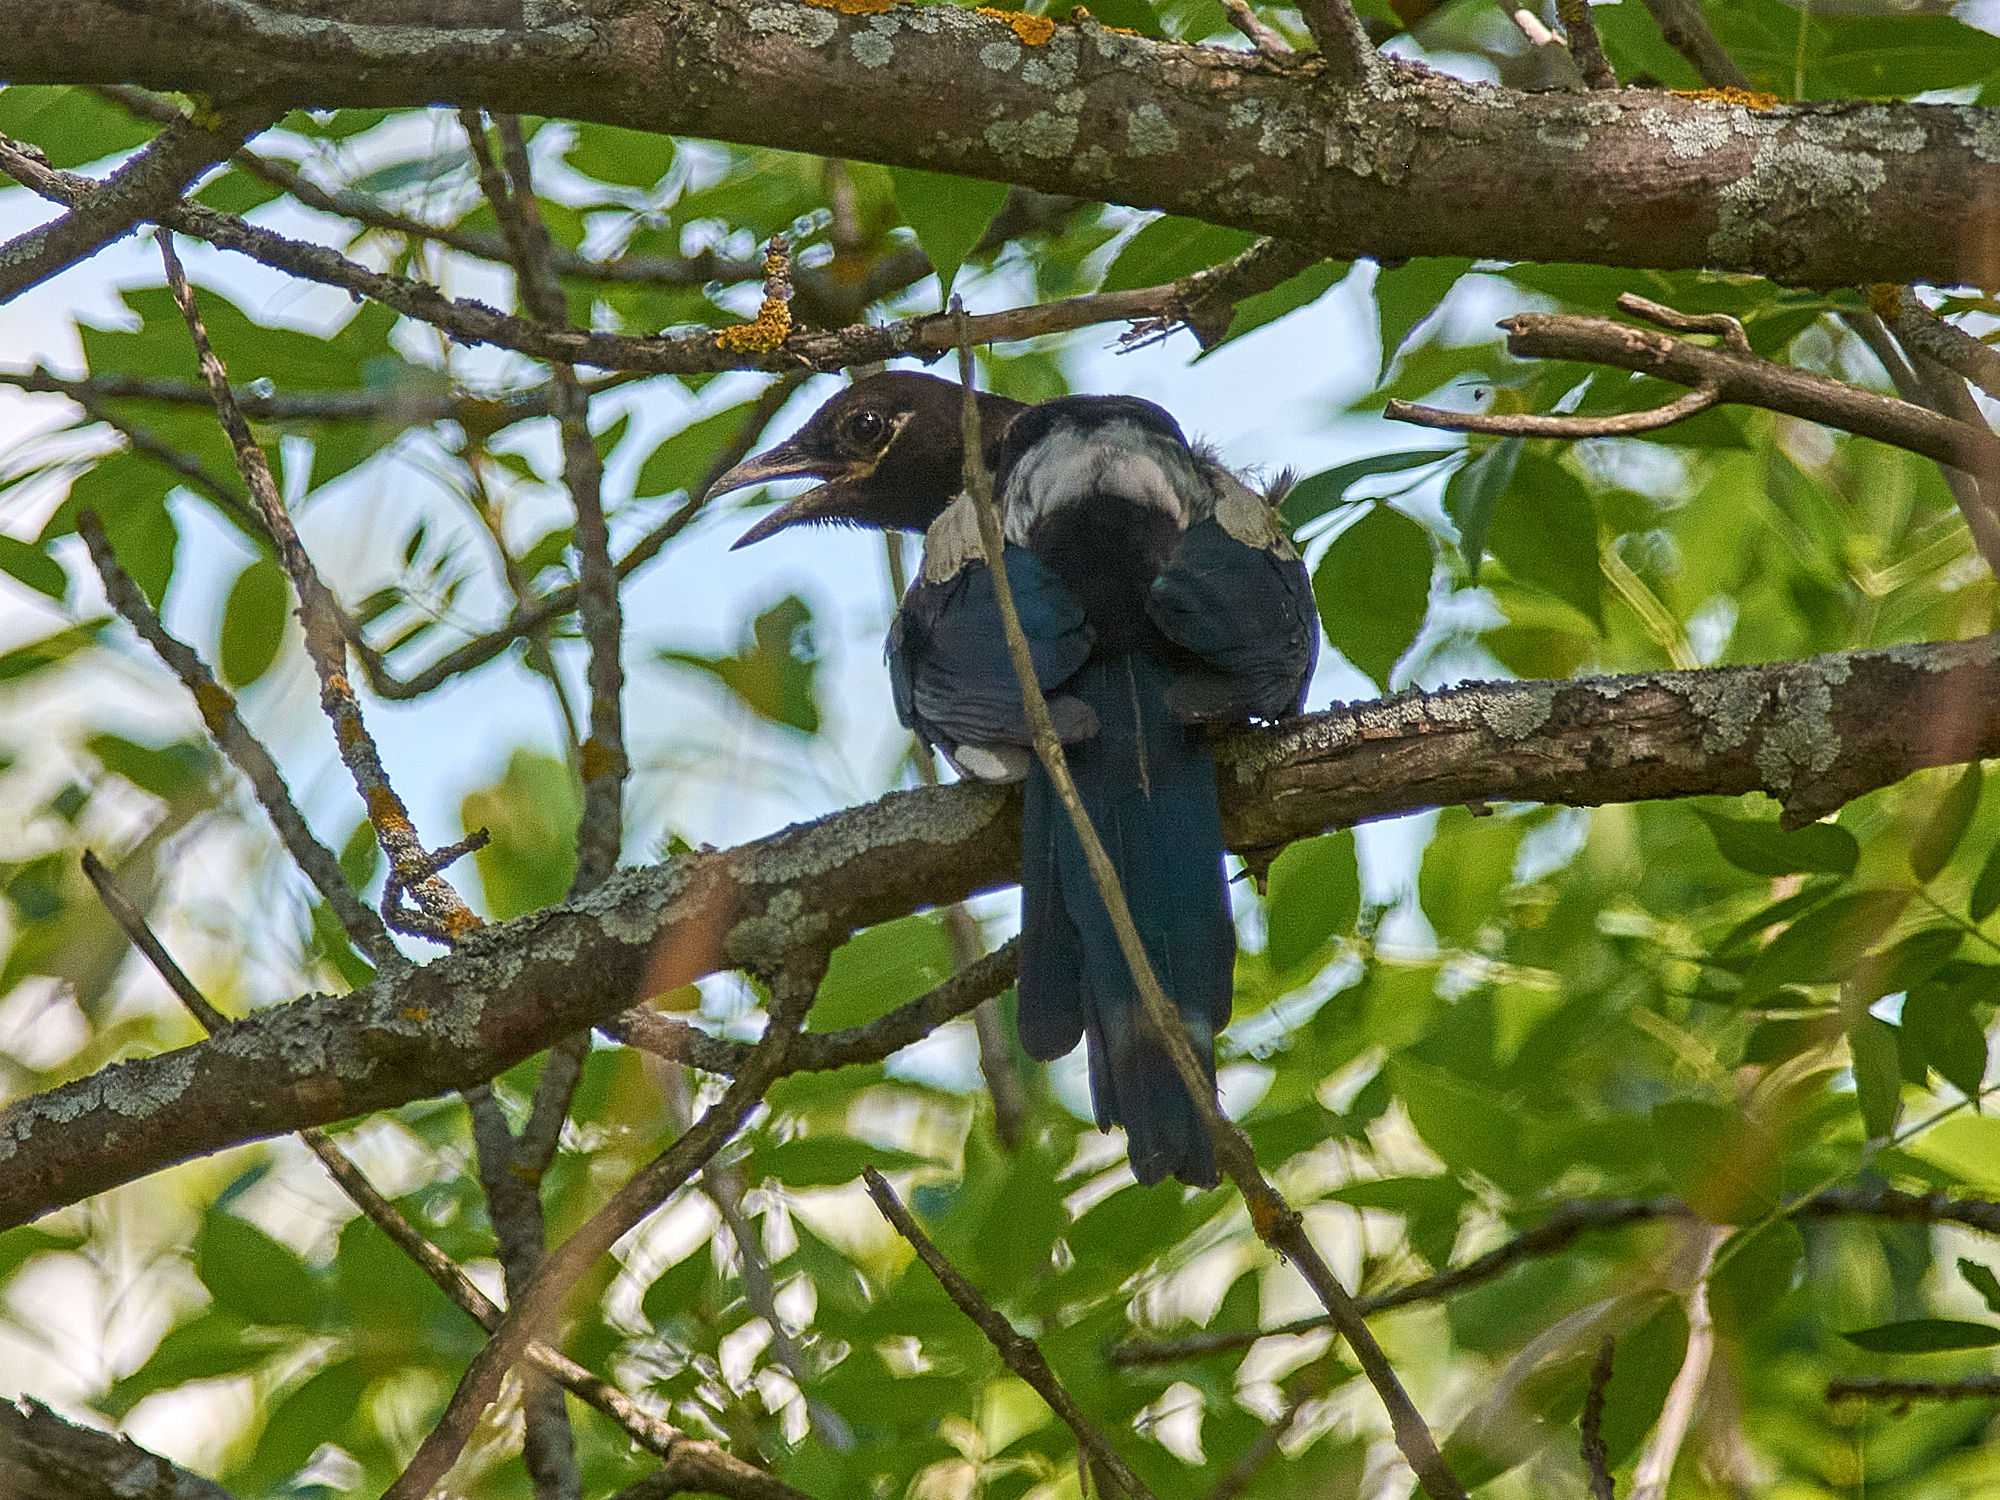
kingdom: Animalia
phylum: Chordata
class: Aves
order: Passeriformes
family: Corvidae
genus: Pica
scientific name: Pica pica
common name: Eurasian magpie
